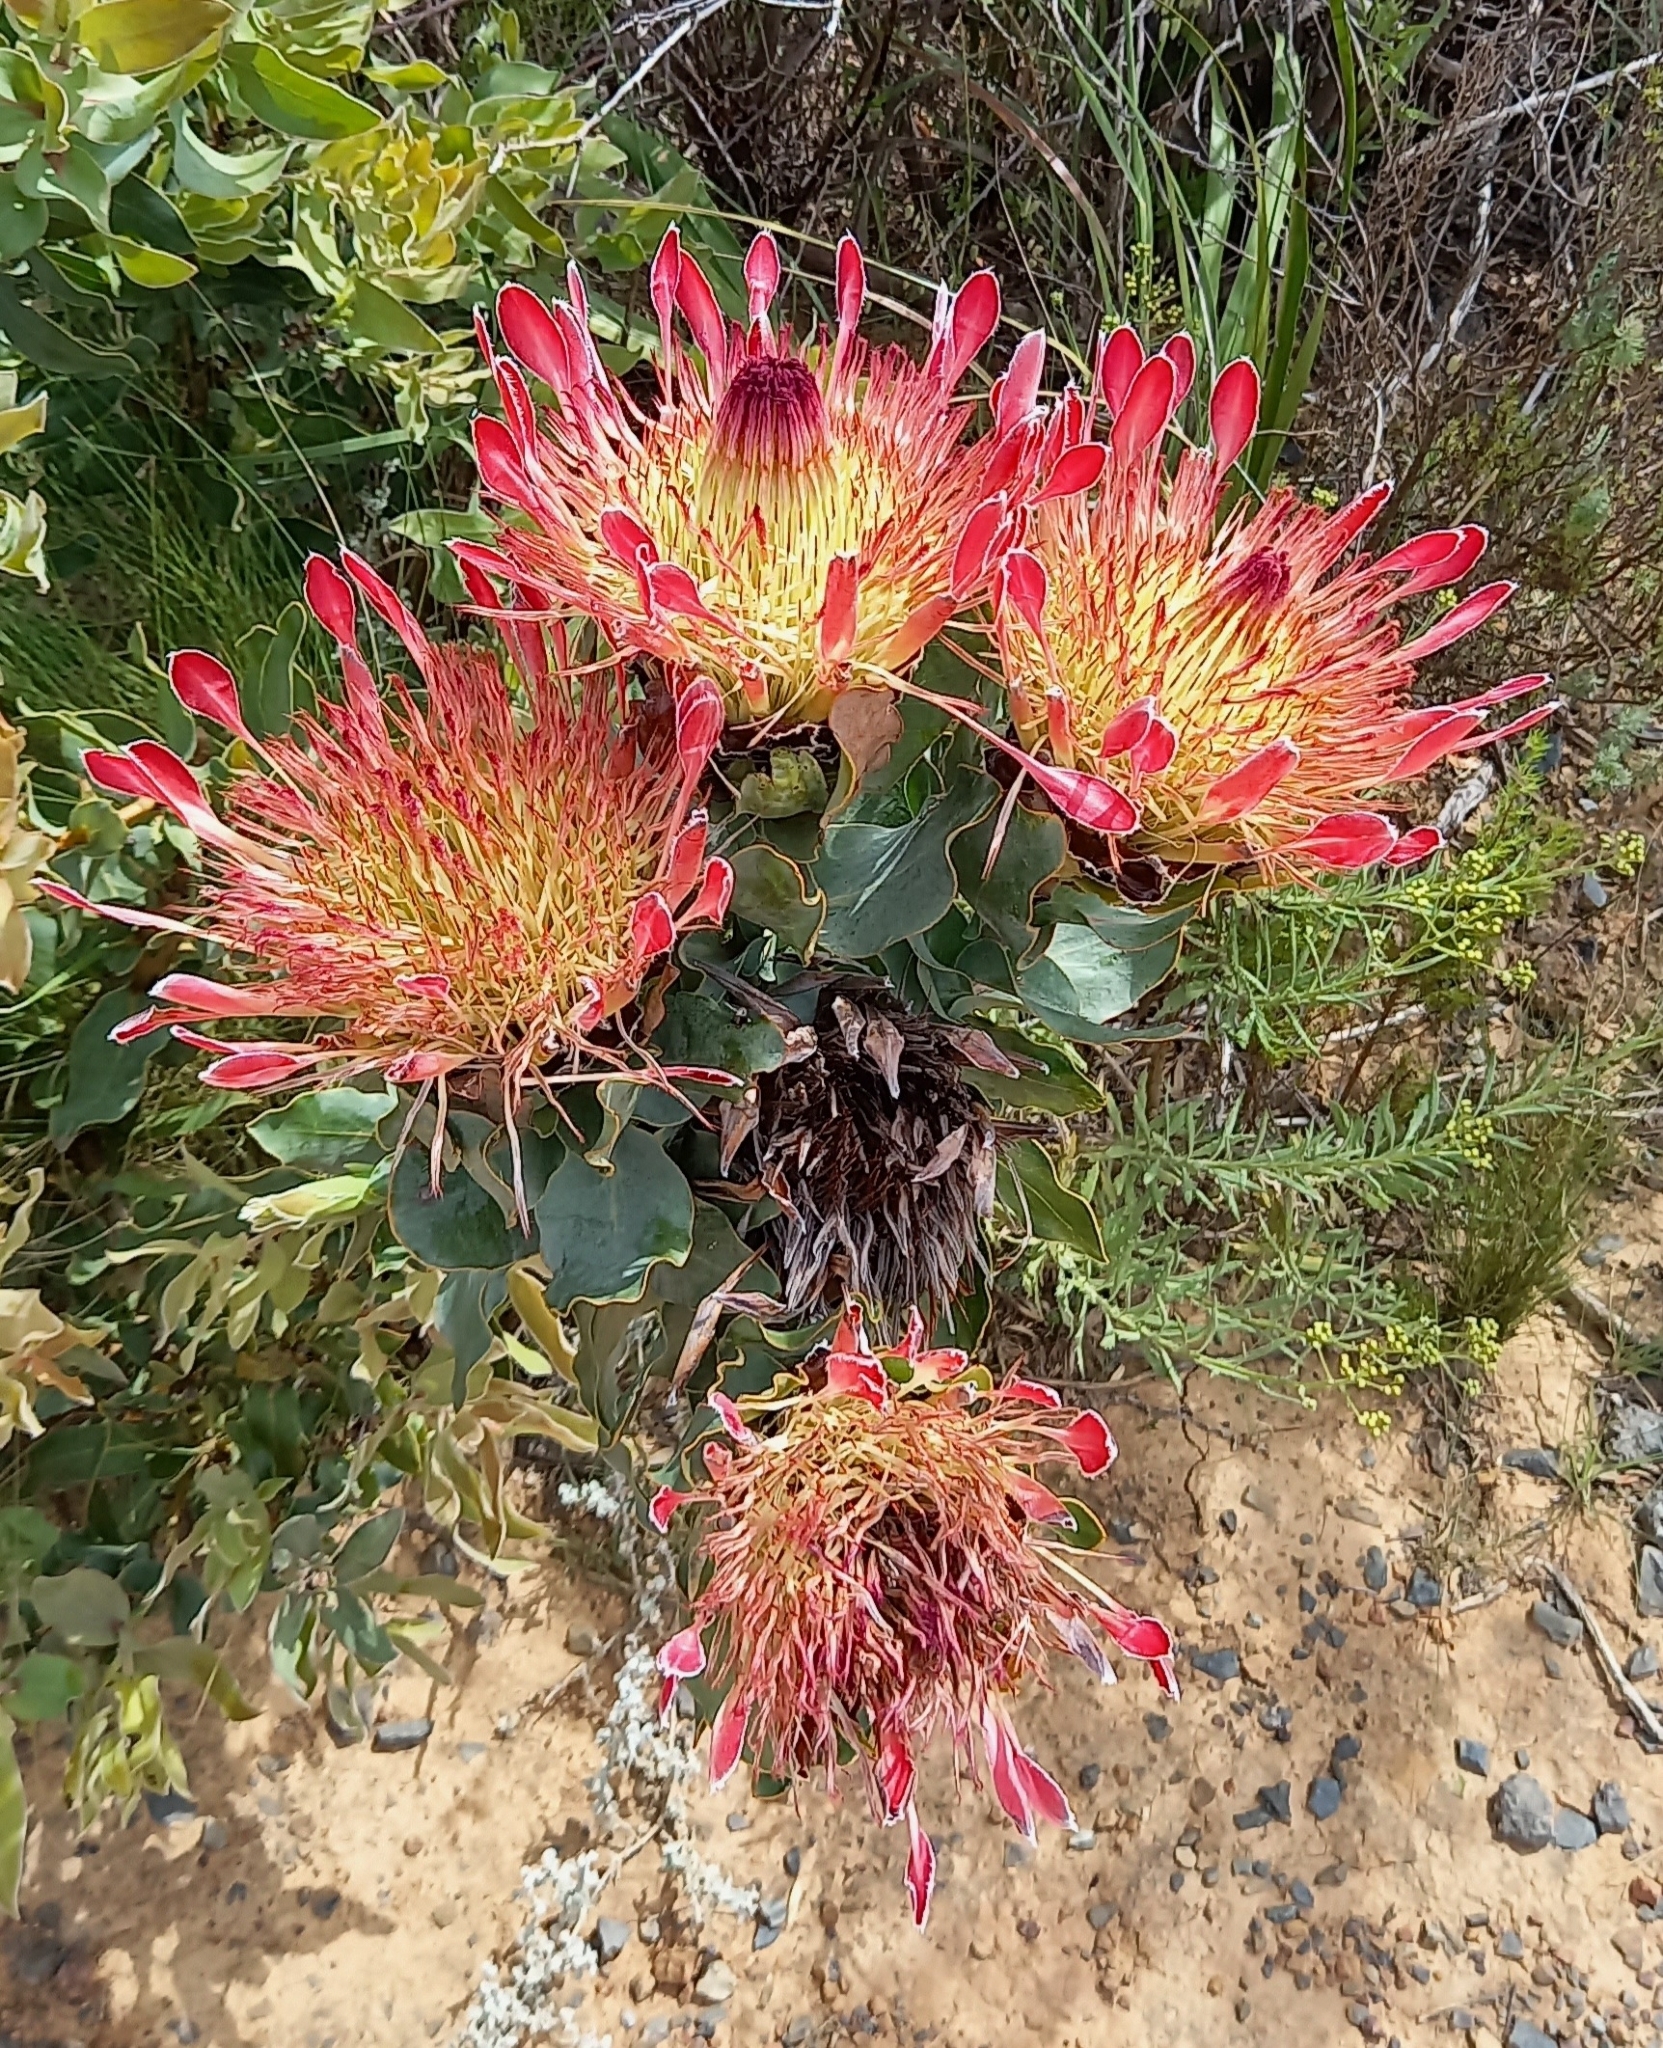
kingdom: Plantae
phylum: Tracheophyta
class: Magnoliopsida
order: Proteales
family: Proteaceae
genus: Protea
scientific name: Protea eximia
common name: Broad-leaved sugarbush
